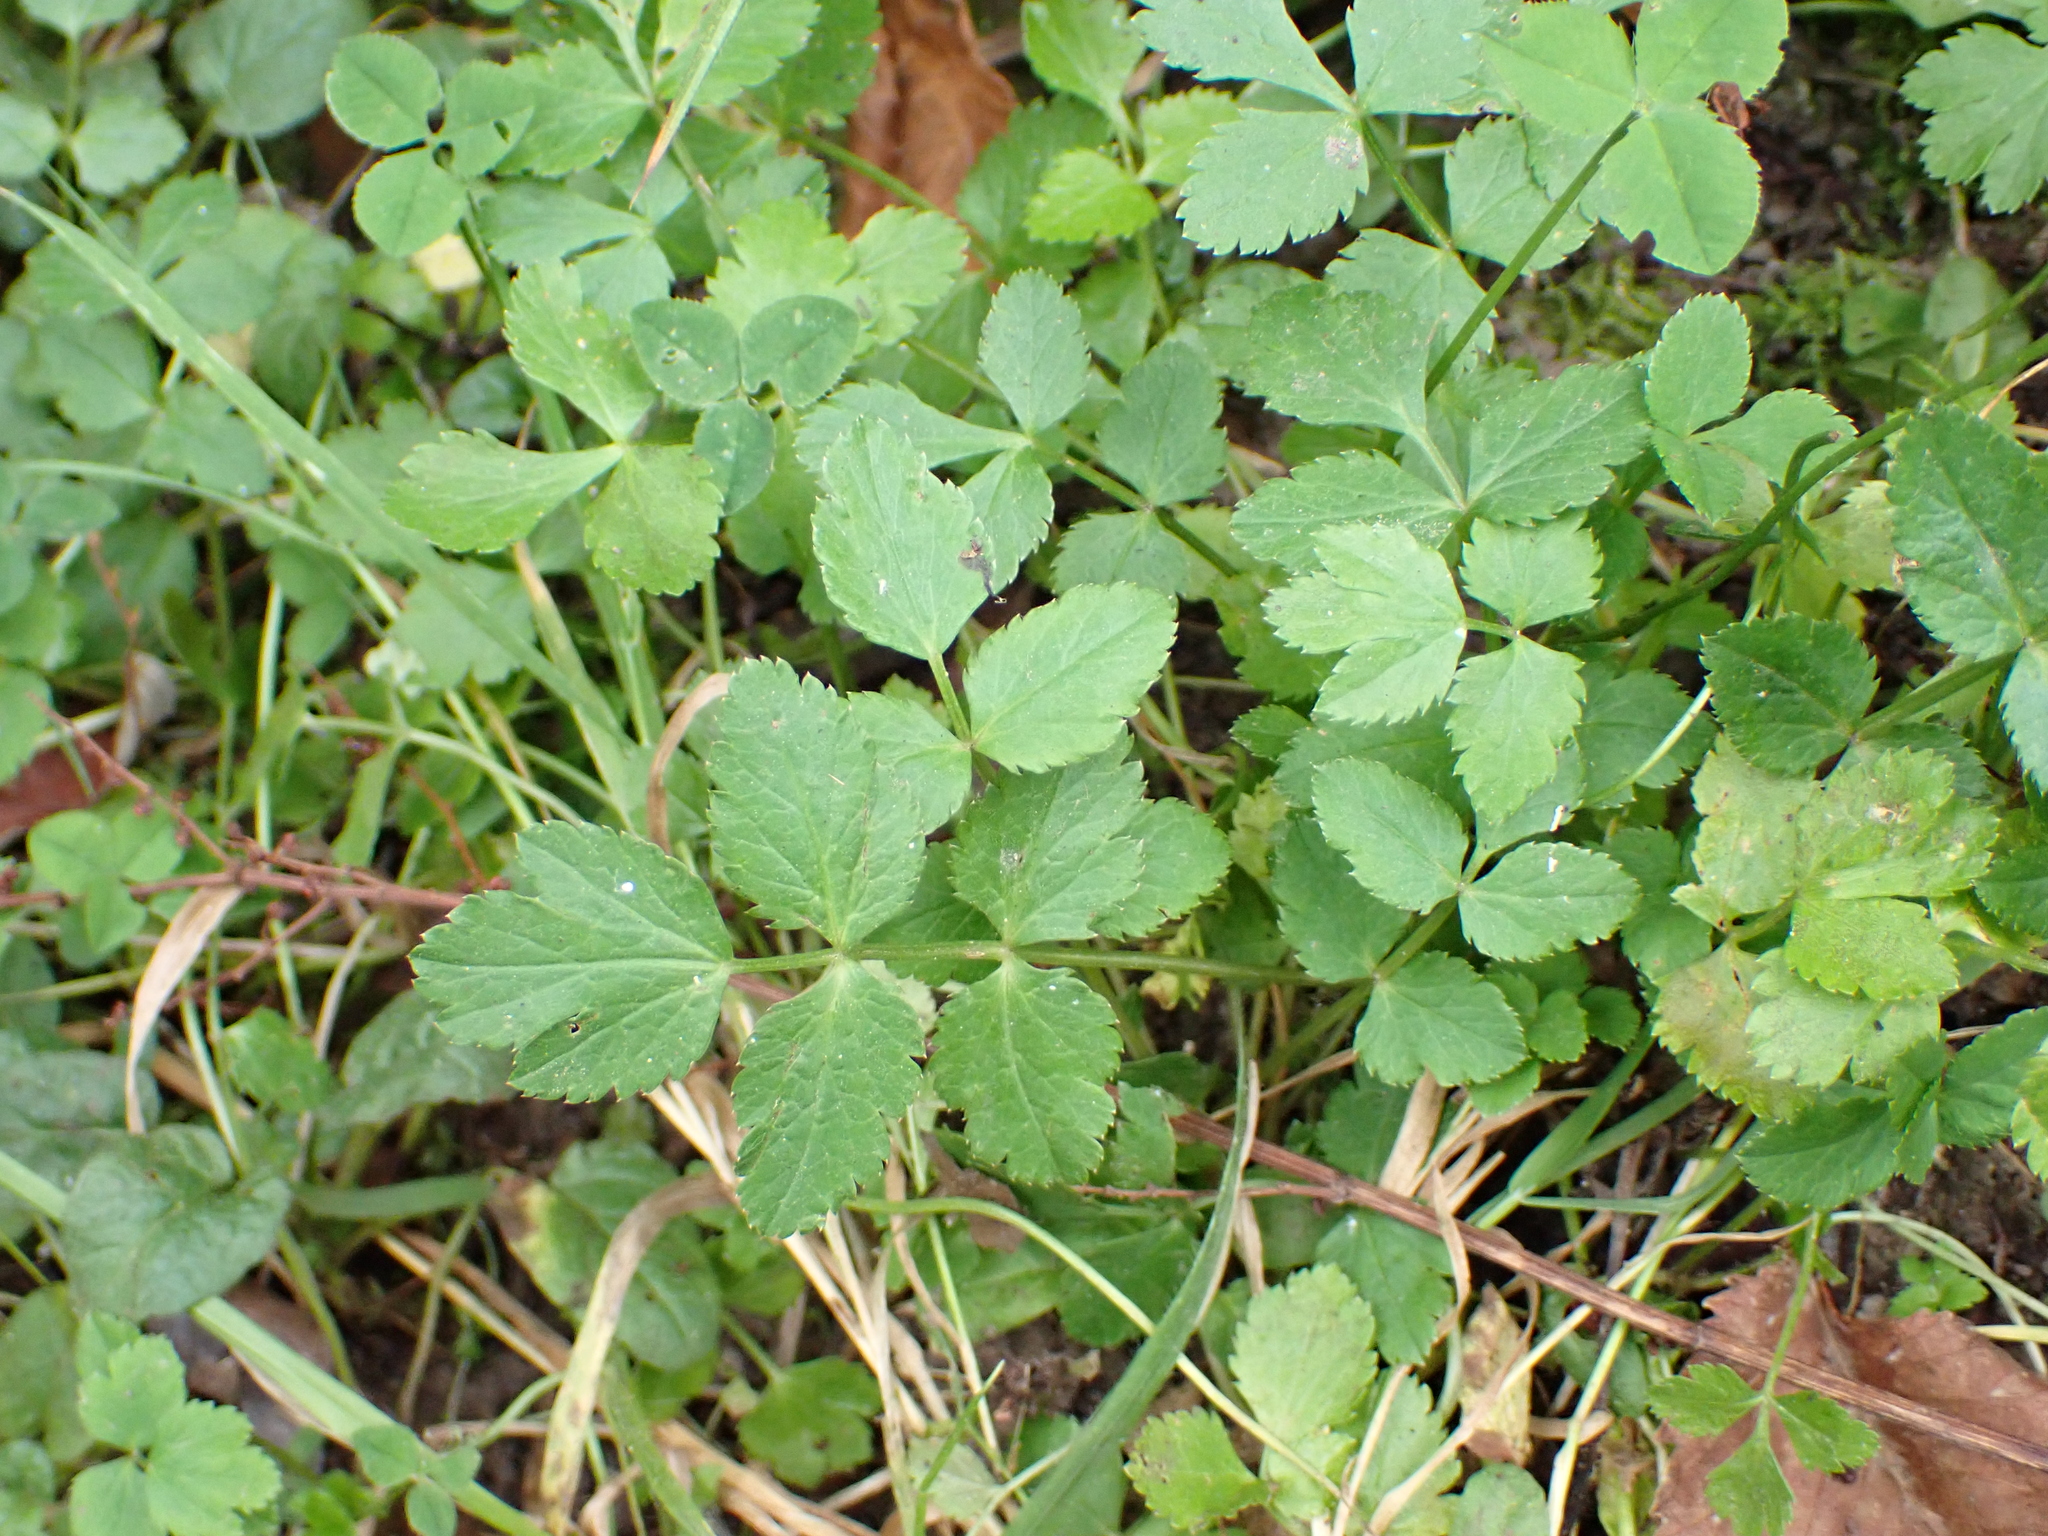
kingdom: Plantae
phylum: Tracheophyta
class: Magnoliopsida
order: Apiales
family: Apiaceae
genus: Sison
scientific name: Sison amomum
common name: Stone-parsley
